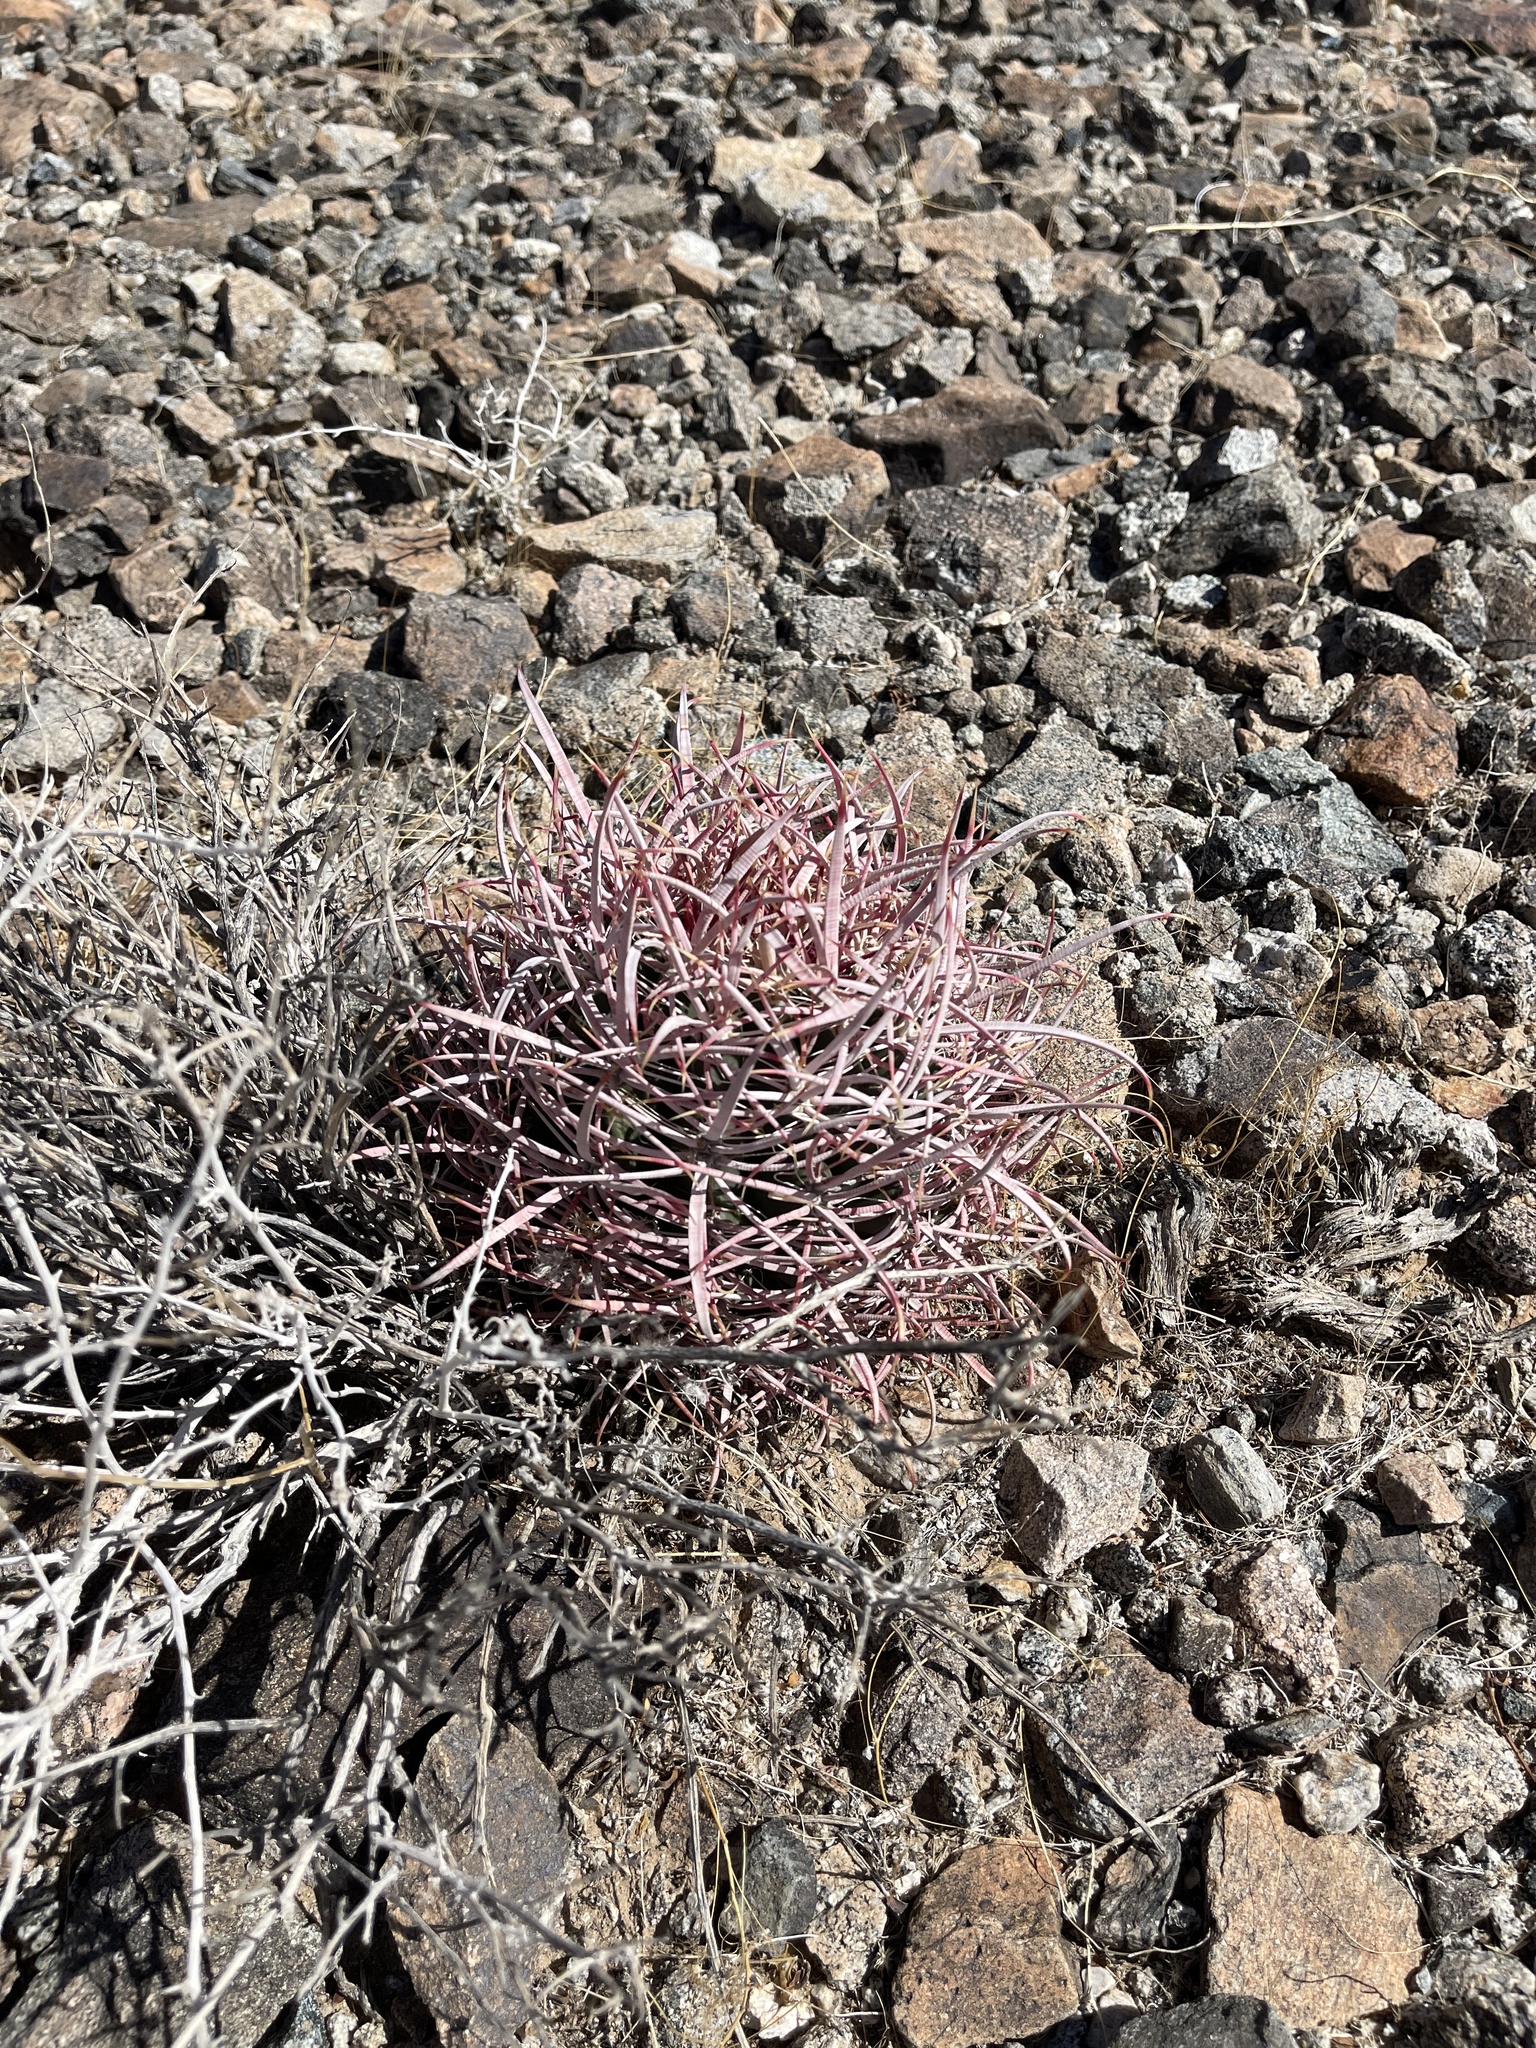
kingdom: Plantae
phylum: Tracheophyta
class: Magnoliopsida
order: Caryophyllales
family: Cactaceae
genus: Echinocactus
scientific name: Echinocactus polycephalus
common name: Cottontop cactus
